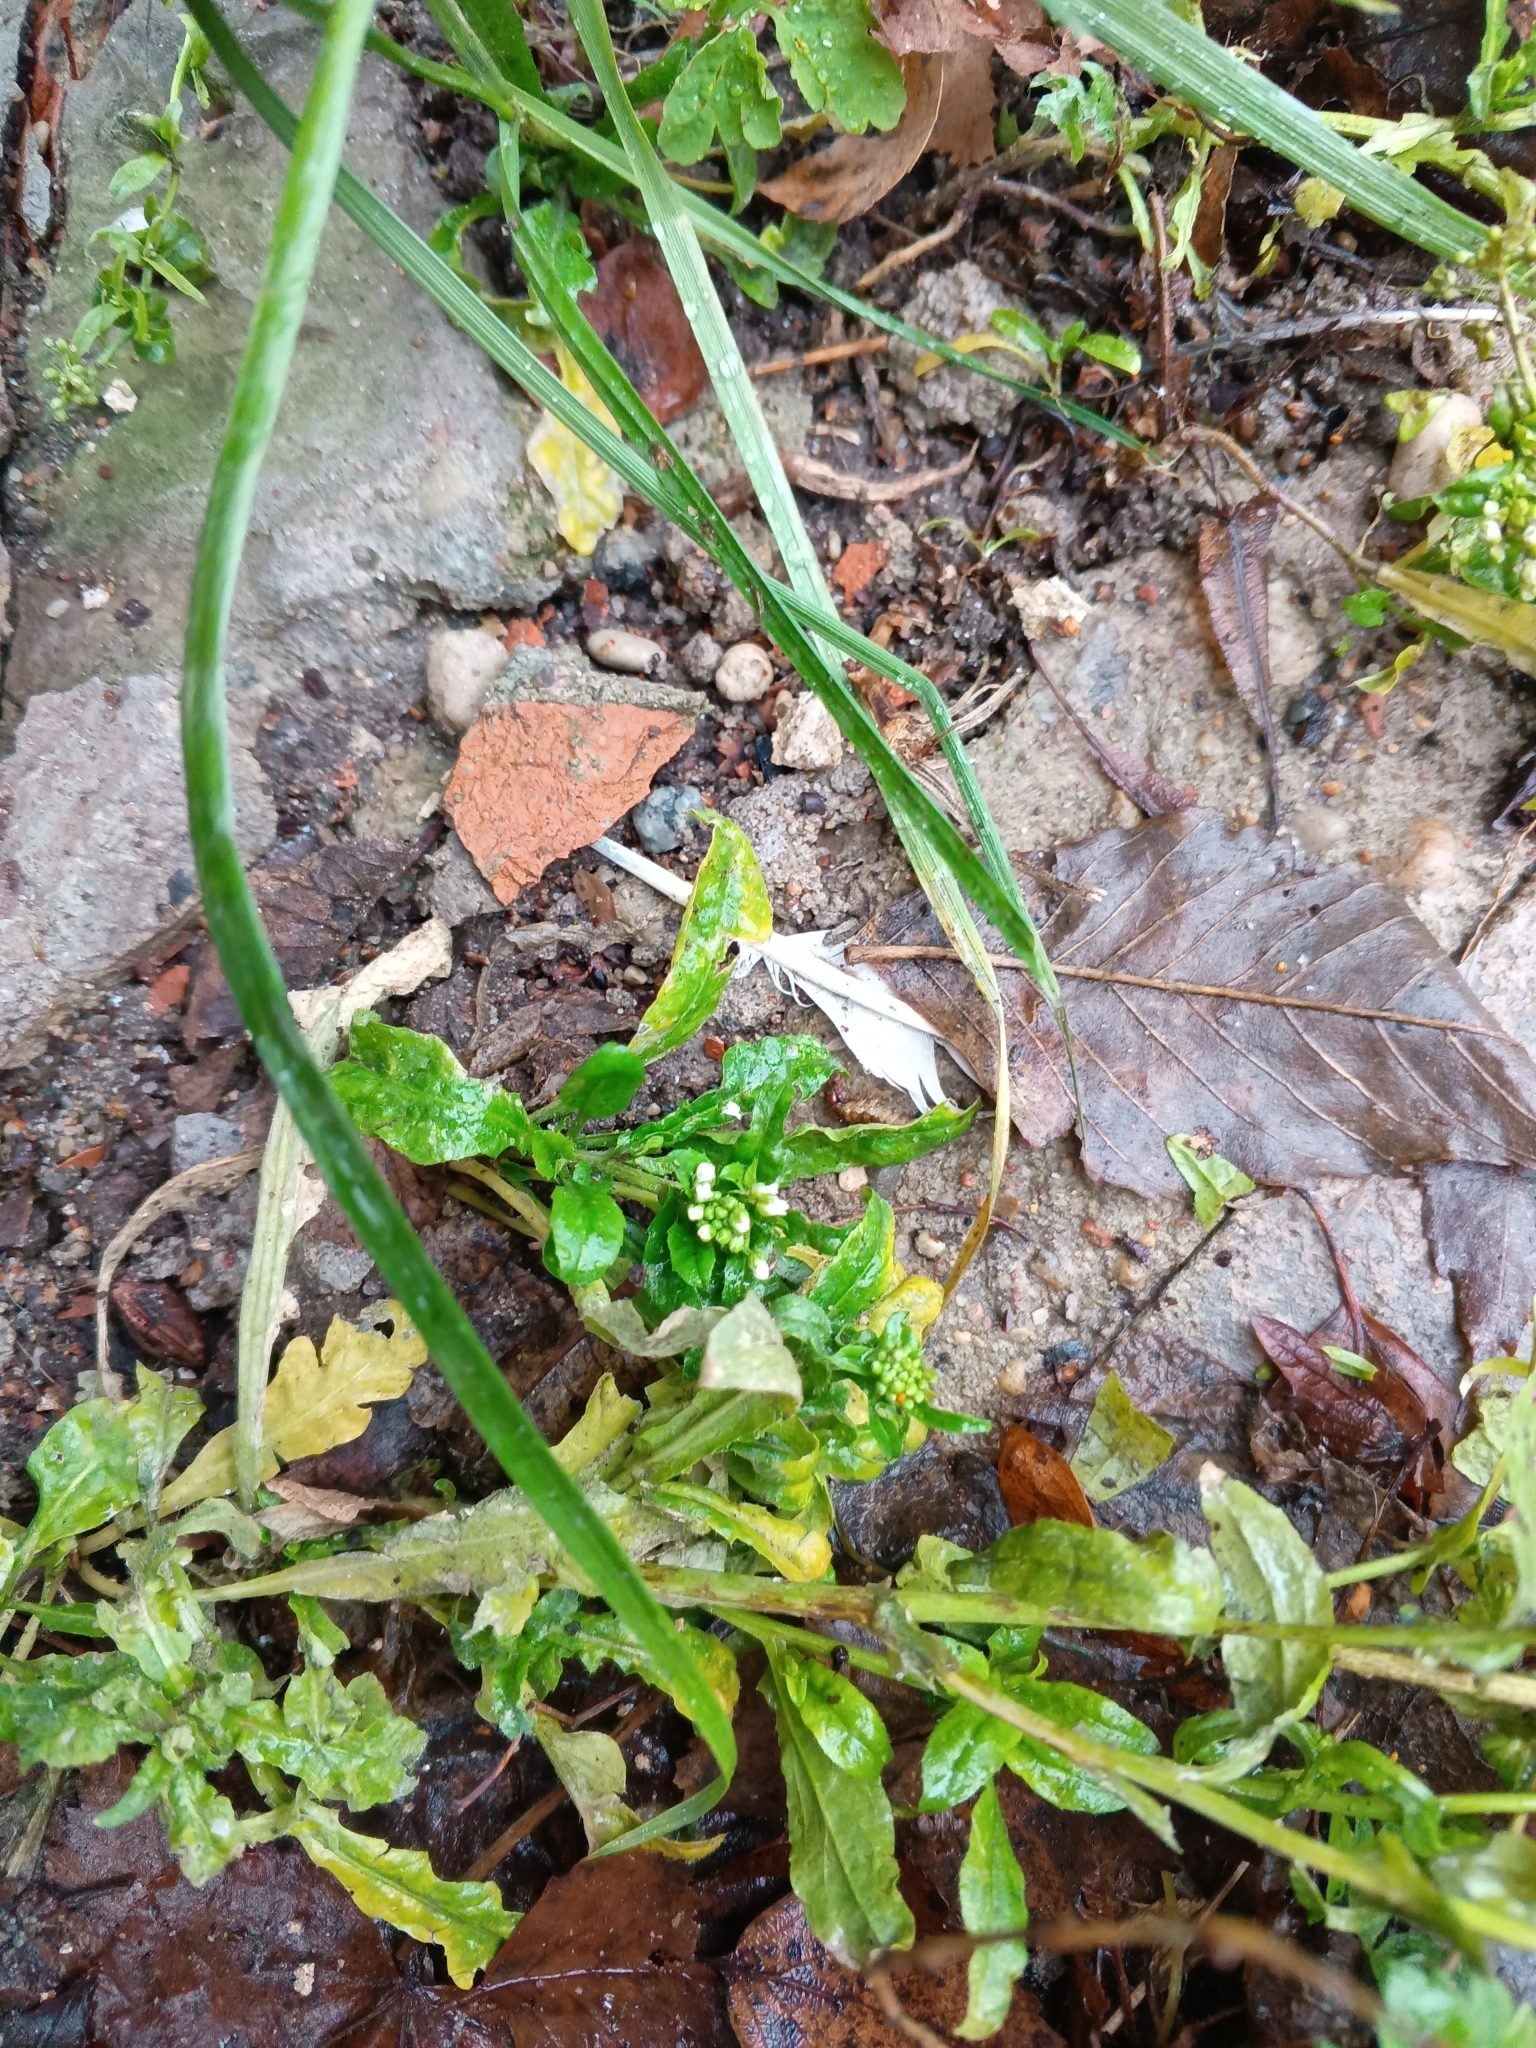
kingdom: Plantae
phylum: Tracheophyta
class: Magnoliopsida
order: Brassicales
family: Brassicaceae
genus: Capsella
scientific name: Capsella bursa-pastoris
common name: Shepherd's purse
